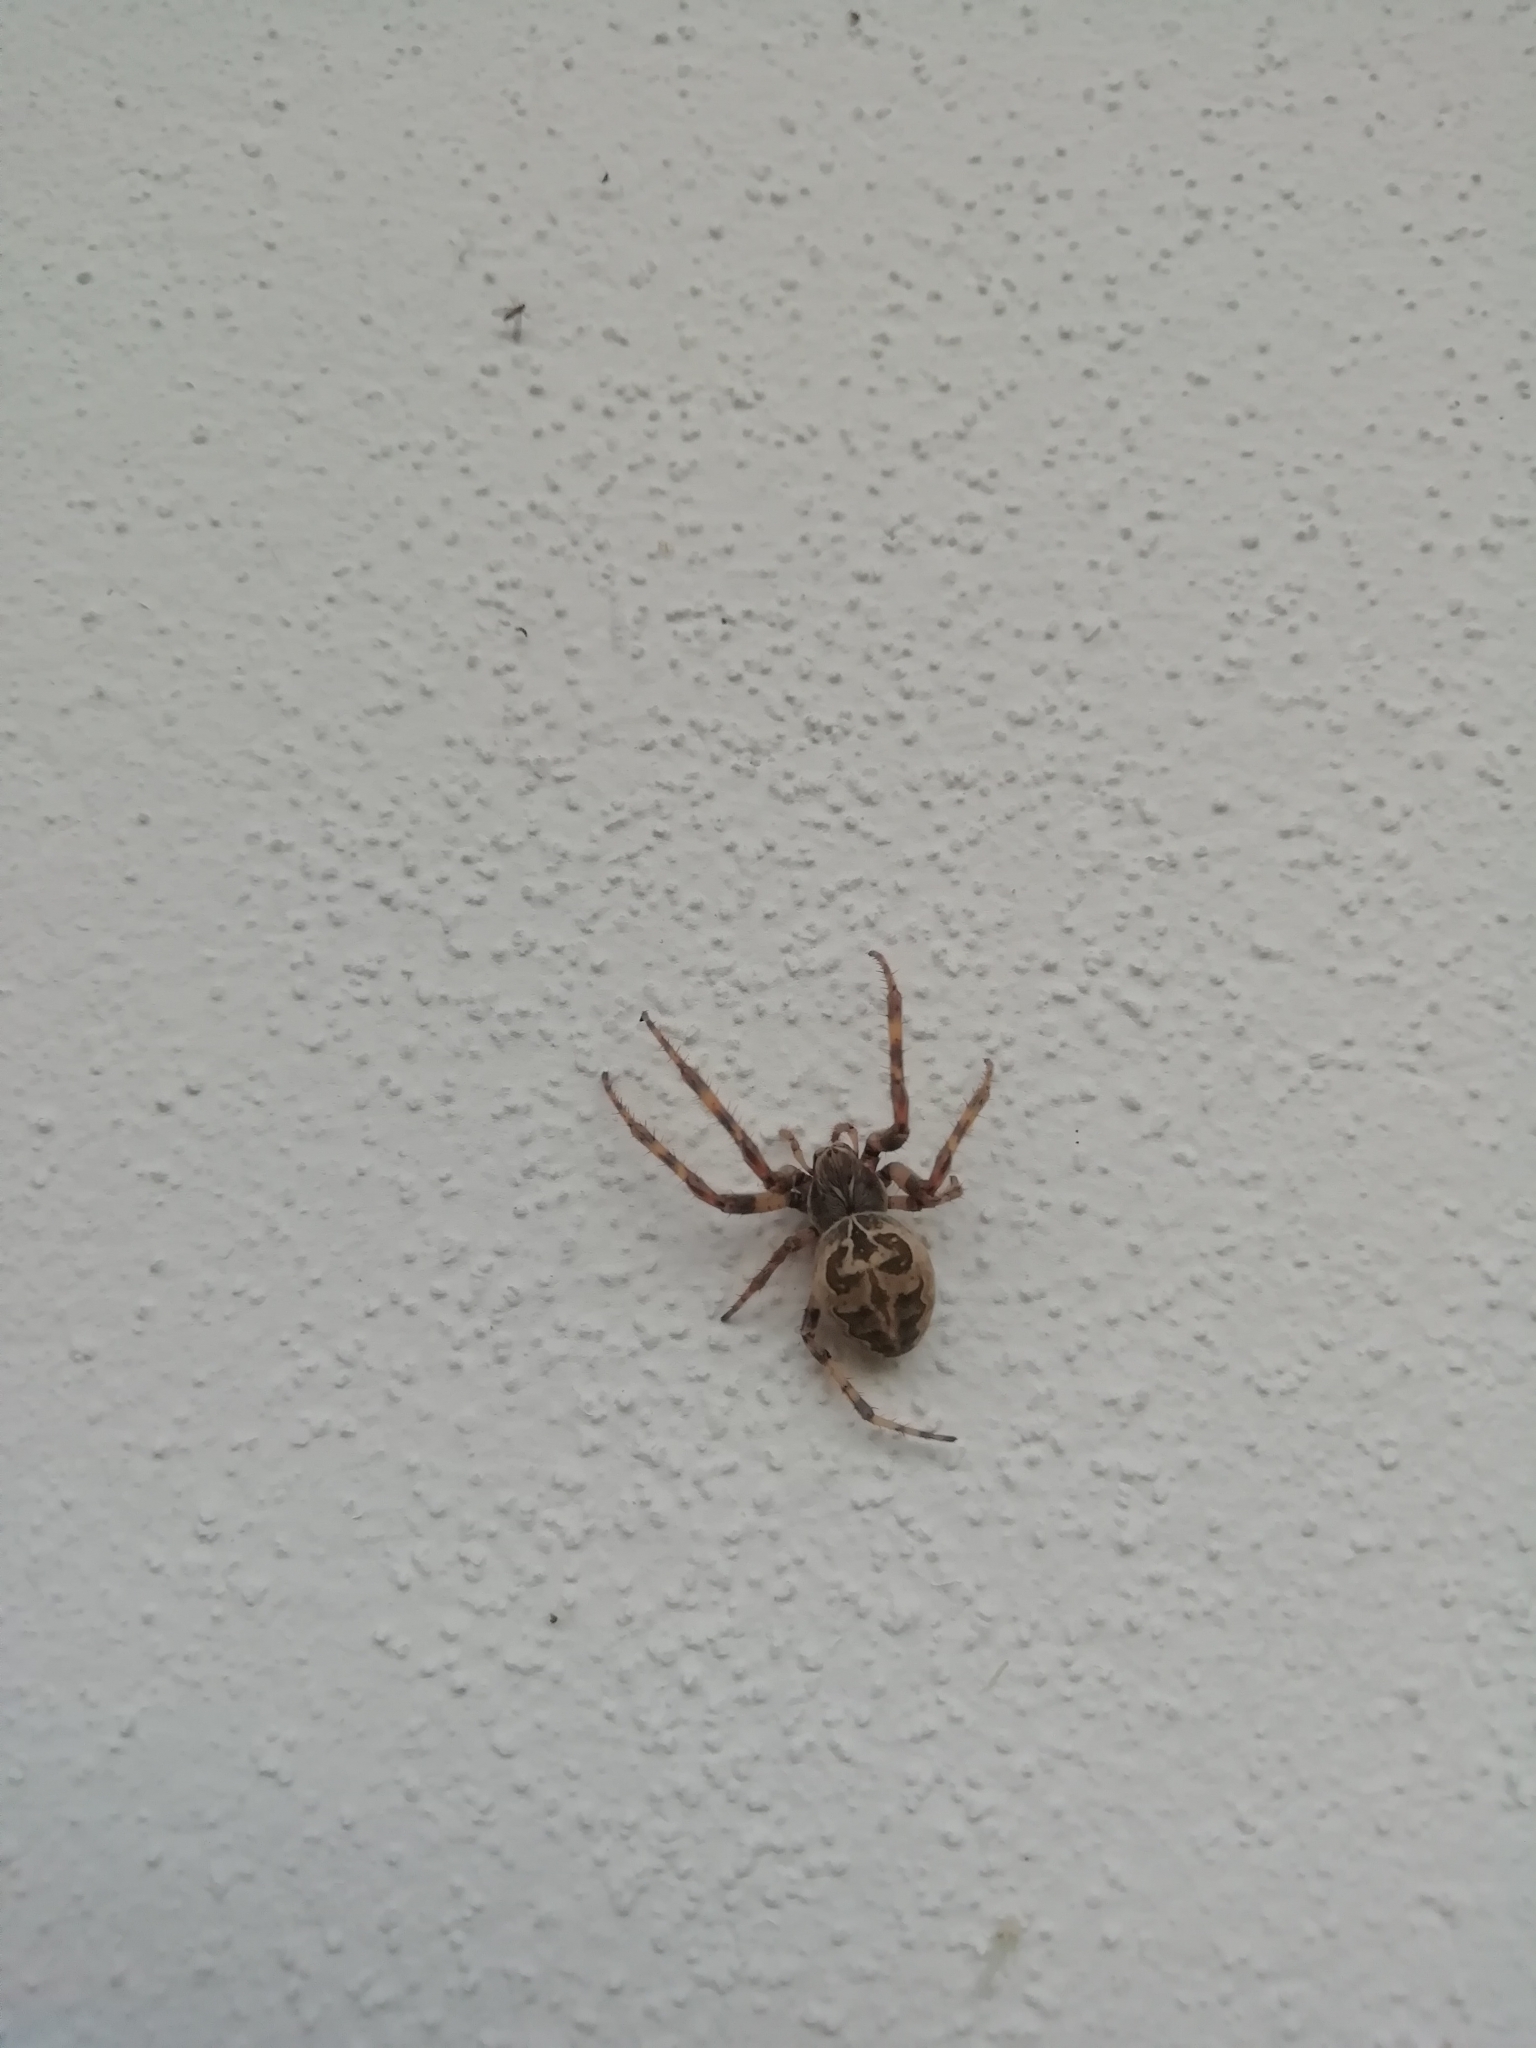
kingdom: Animalia
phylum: Arthropoda
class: Arachnida
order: Araneae
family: Araneidae
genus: Larinioides
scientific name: Larinioides sclopetarius
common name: Bridge orbweaver
